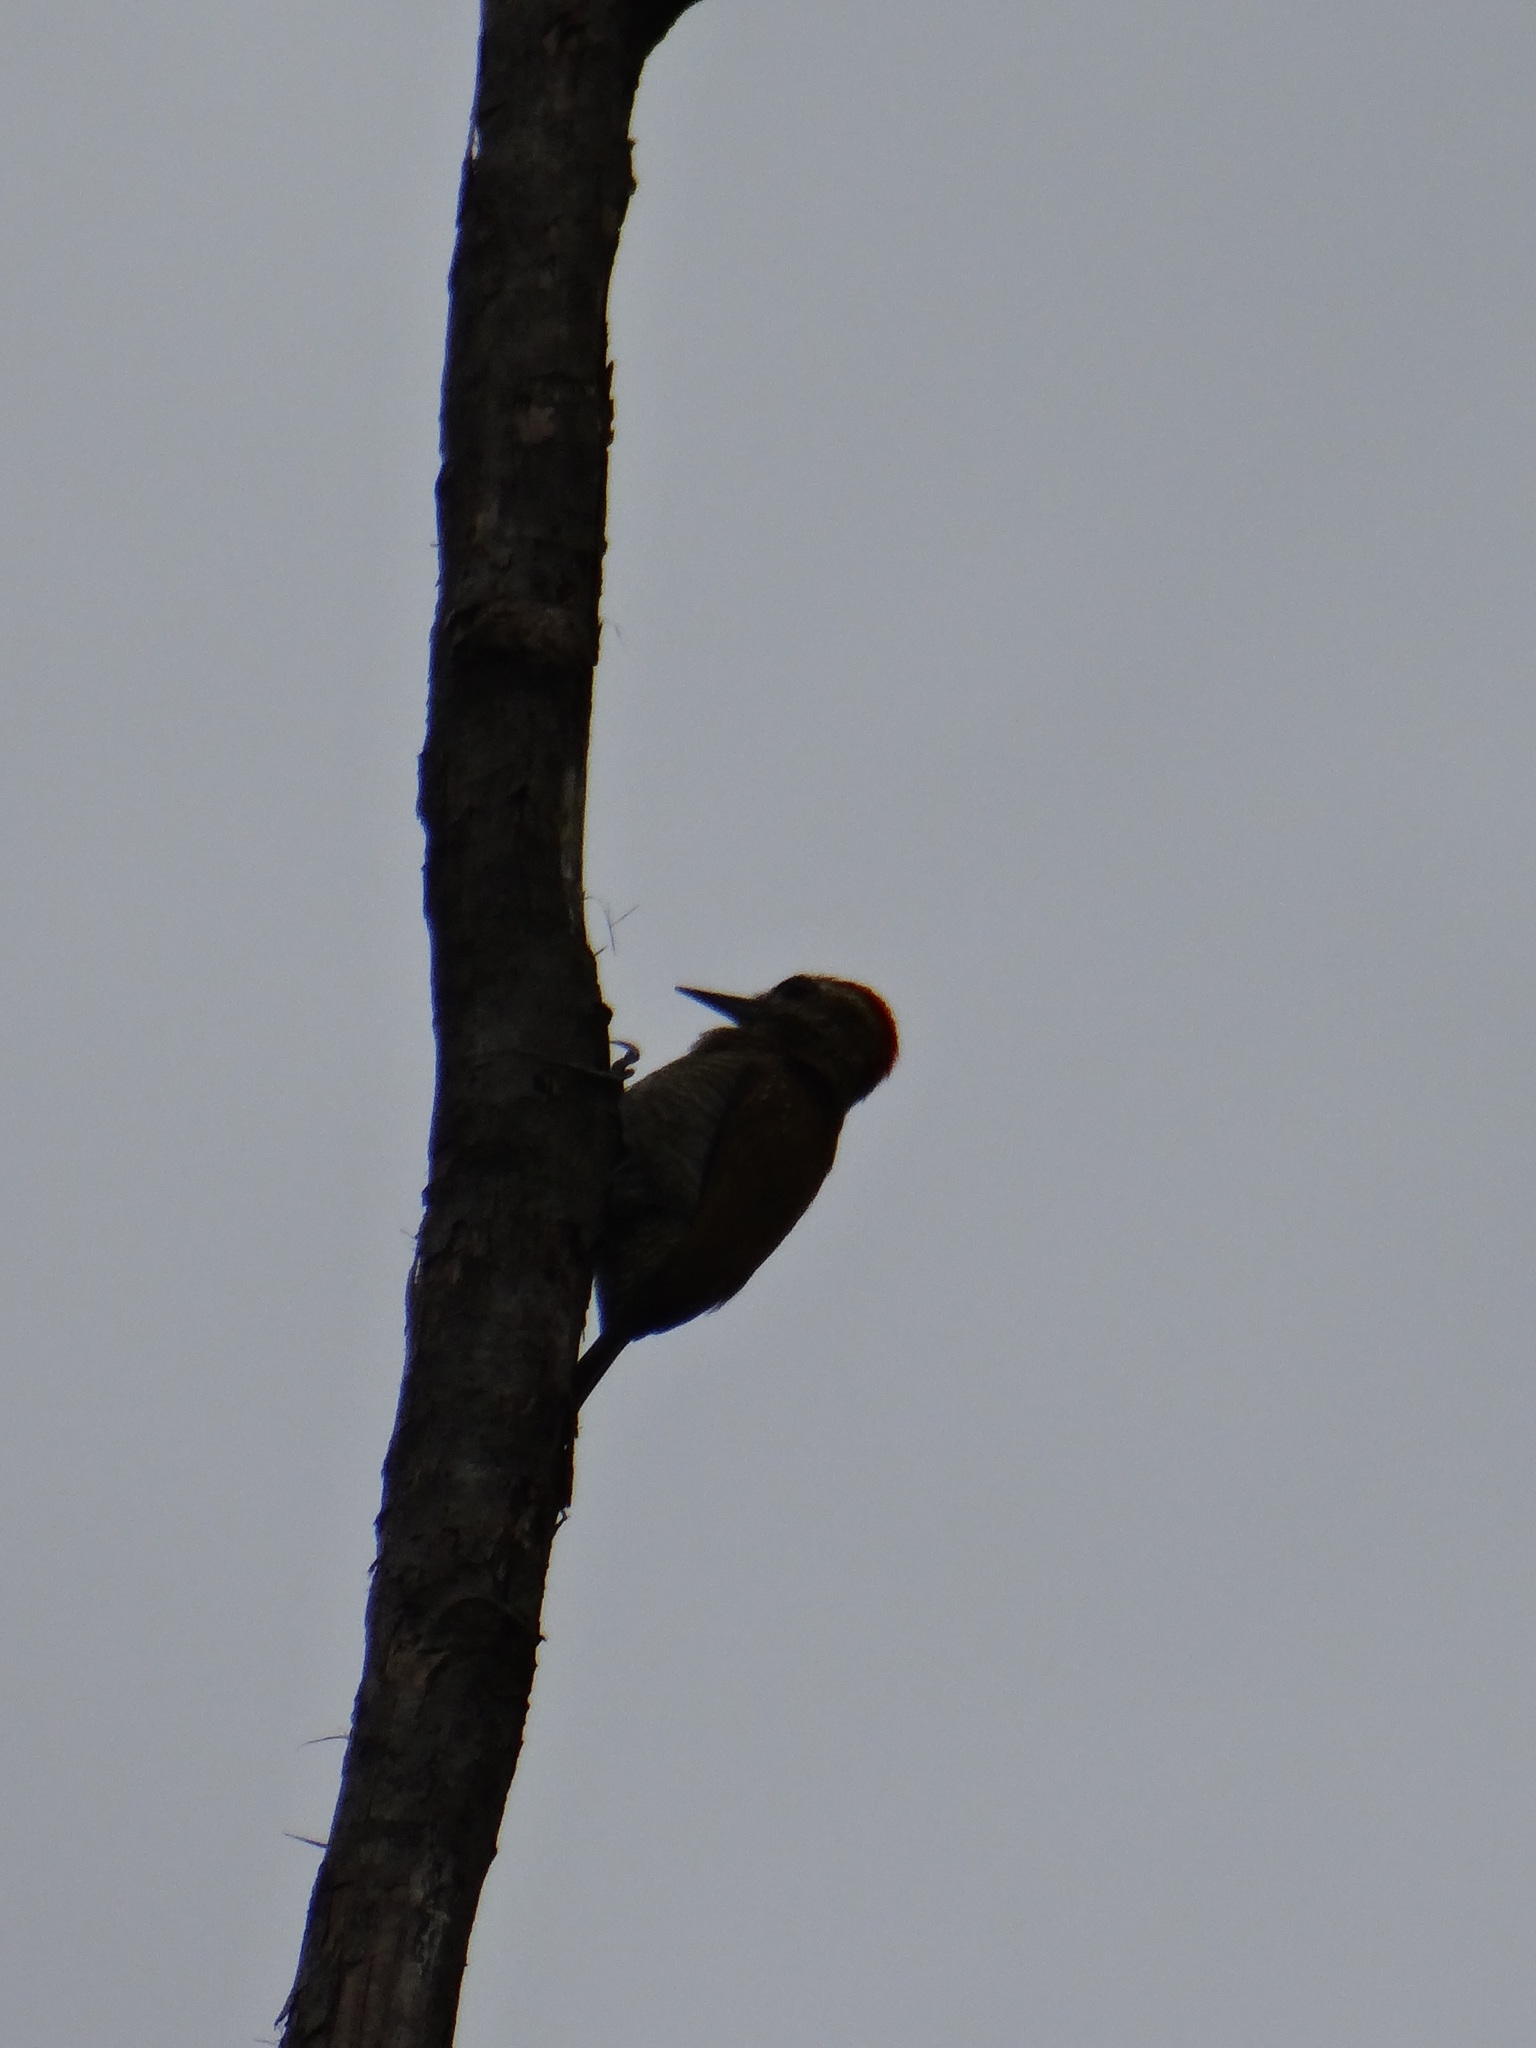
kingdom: Animalia
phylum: Chordata
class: Aves
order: Piciformes
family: Picidae
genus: Veniliornis
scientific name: Veniliornis passerinus
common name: Little woodpecker
